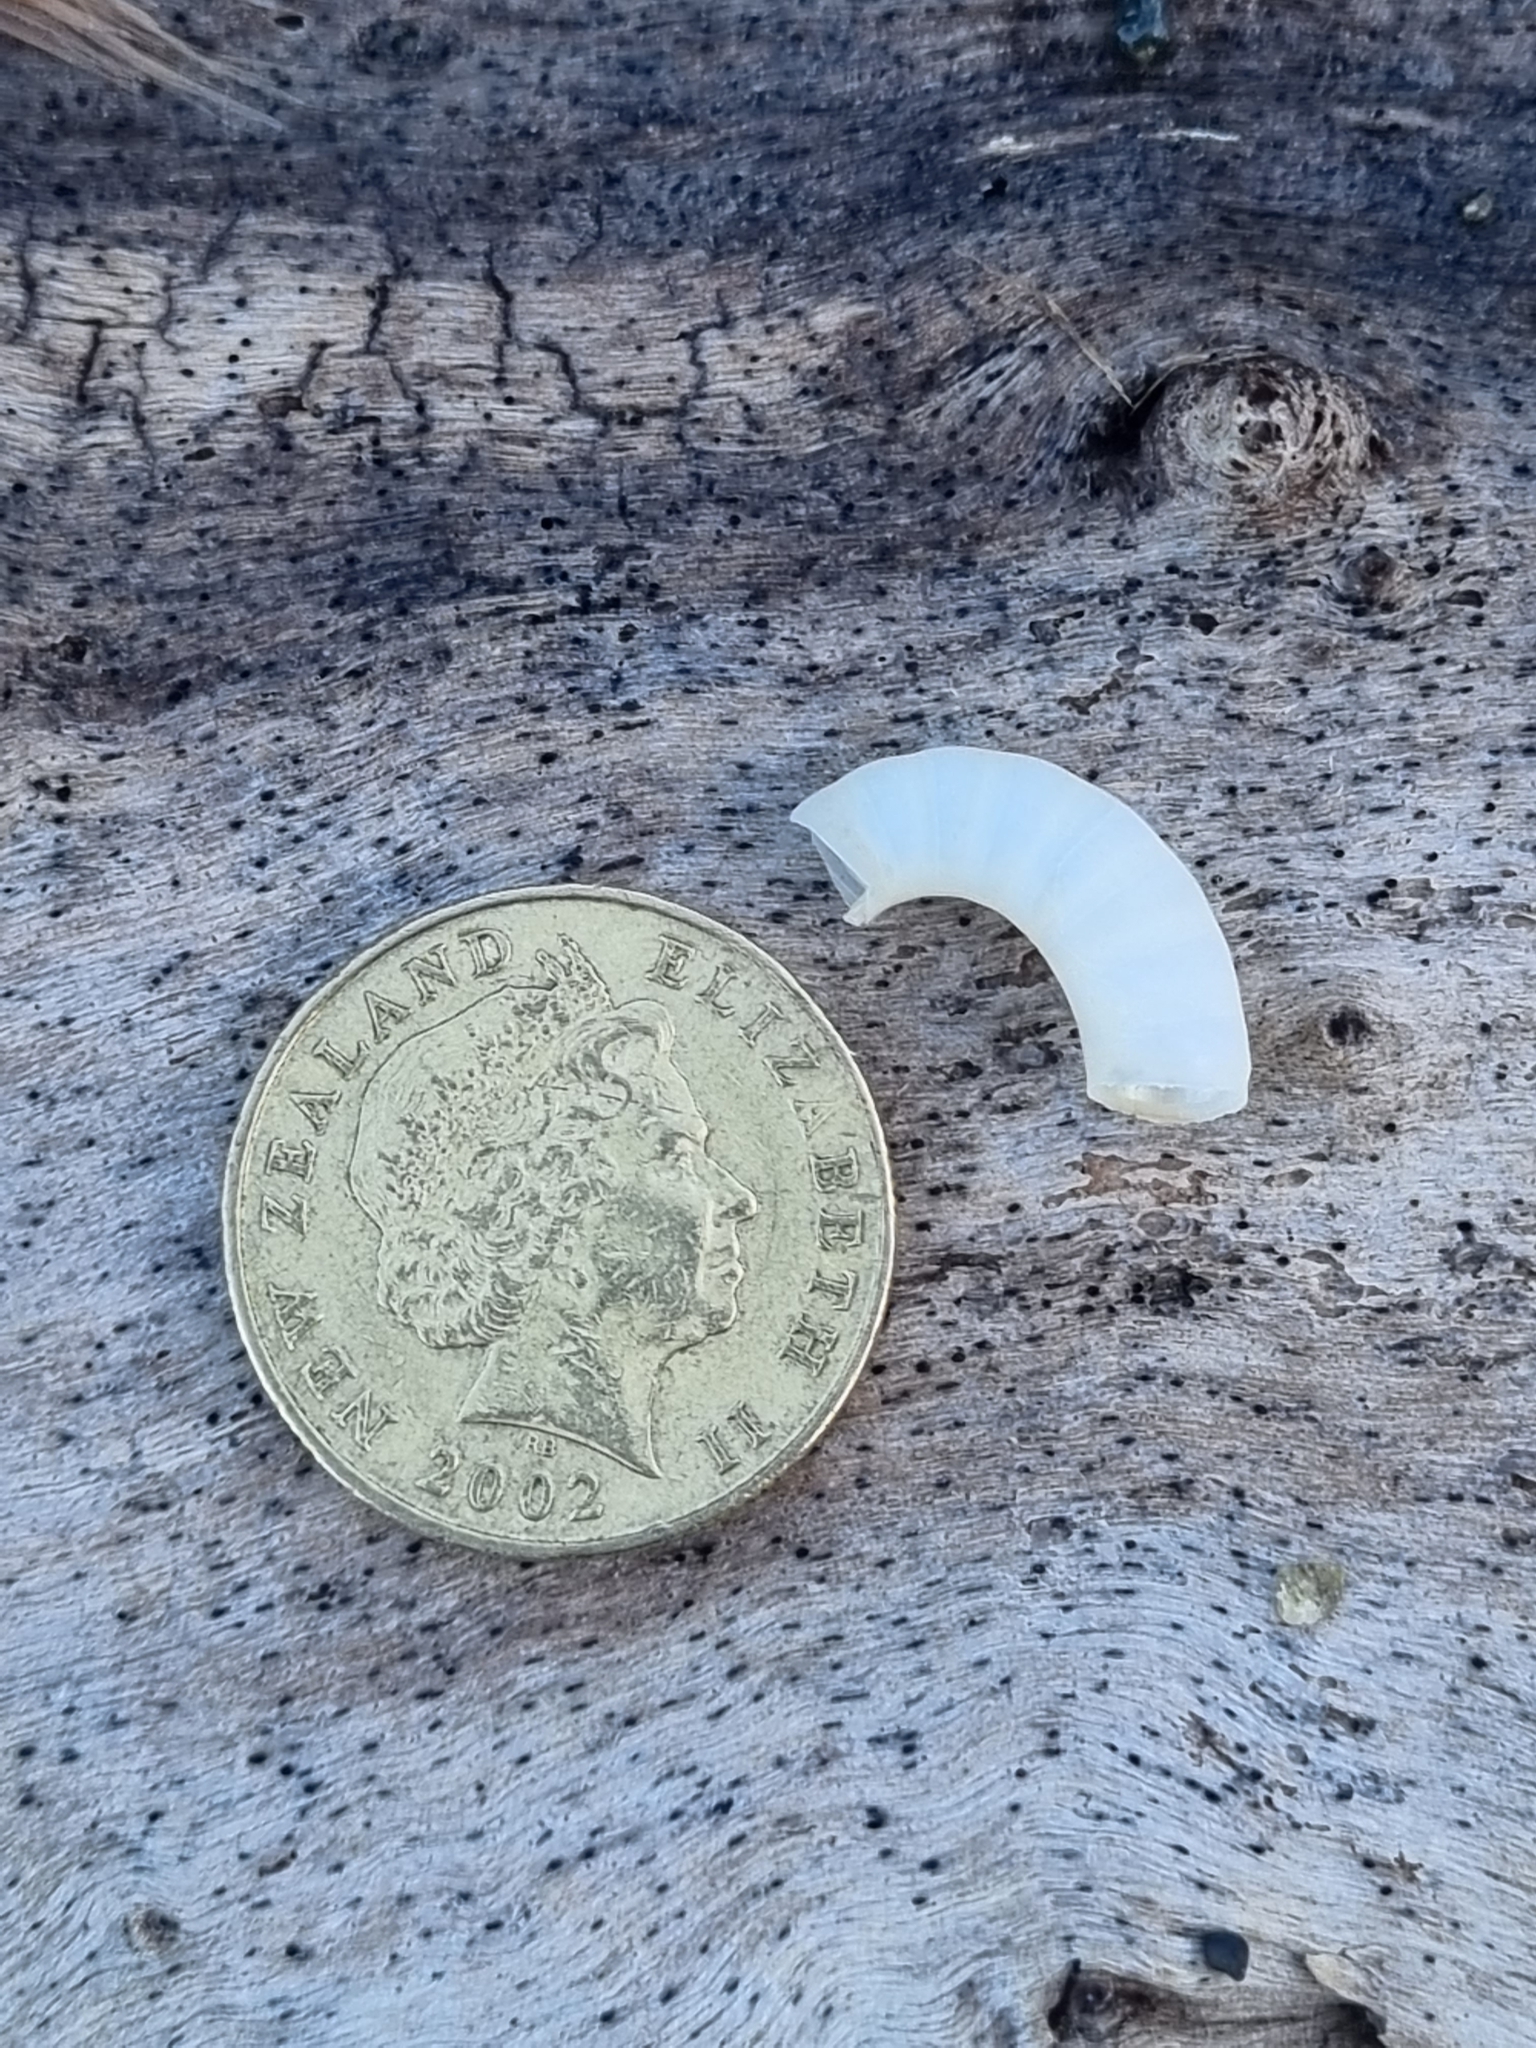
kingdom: Animalia
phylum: Mollusca
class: Cephalopoda
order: Spirulida
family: Spirulidae
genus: Spirula
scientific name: Spirula spirula
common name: Ram's horn squid
